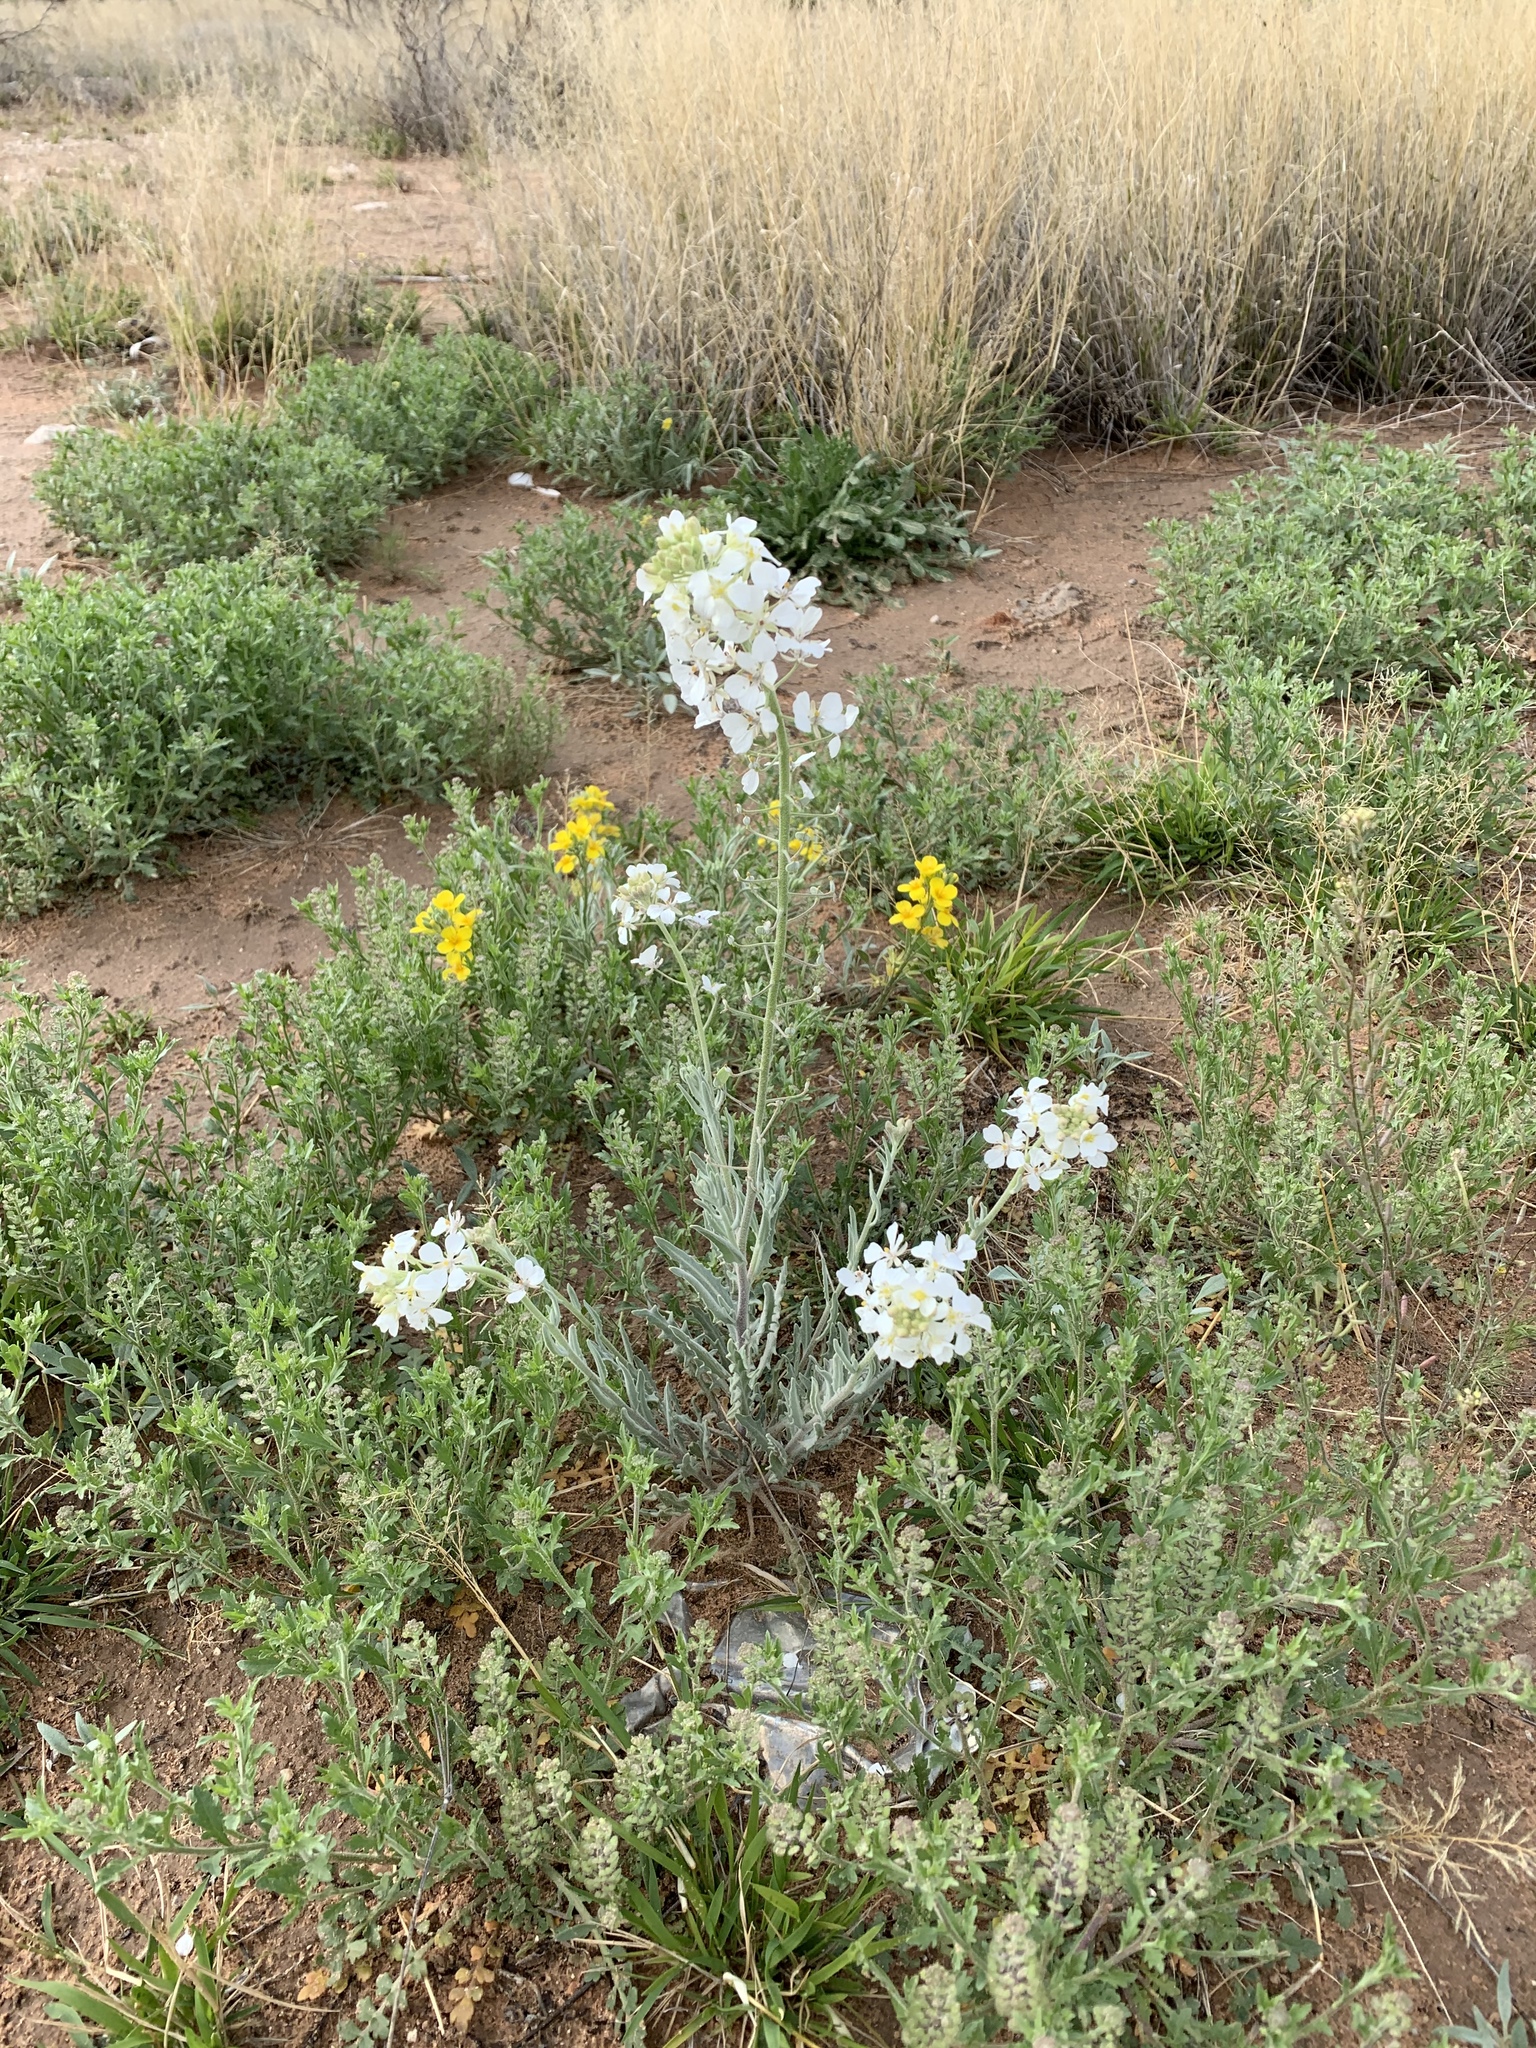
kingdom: Plantae
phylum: Tracheophyta
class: Magnoliopsida
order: Brassicales
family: Brassicaceae
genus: Dimorphocarpa
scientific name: Dimorphocarpa wislizenii
